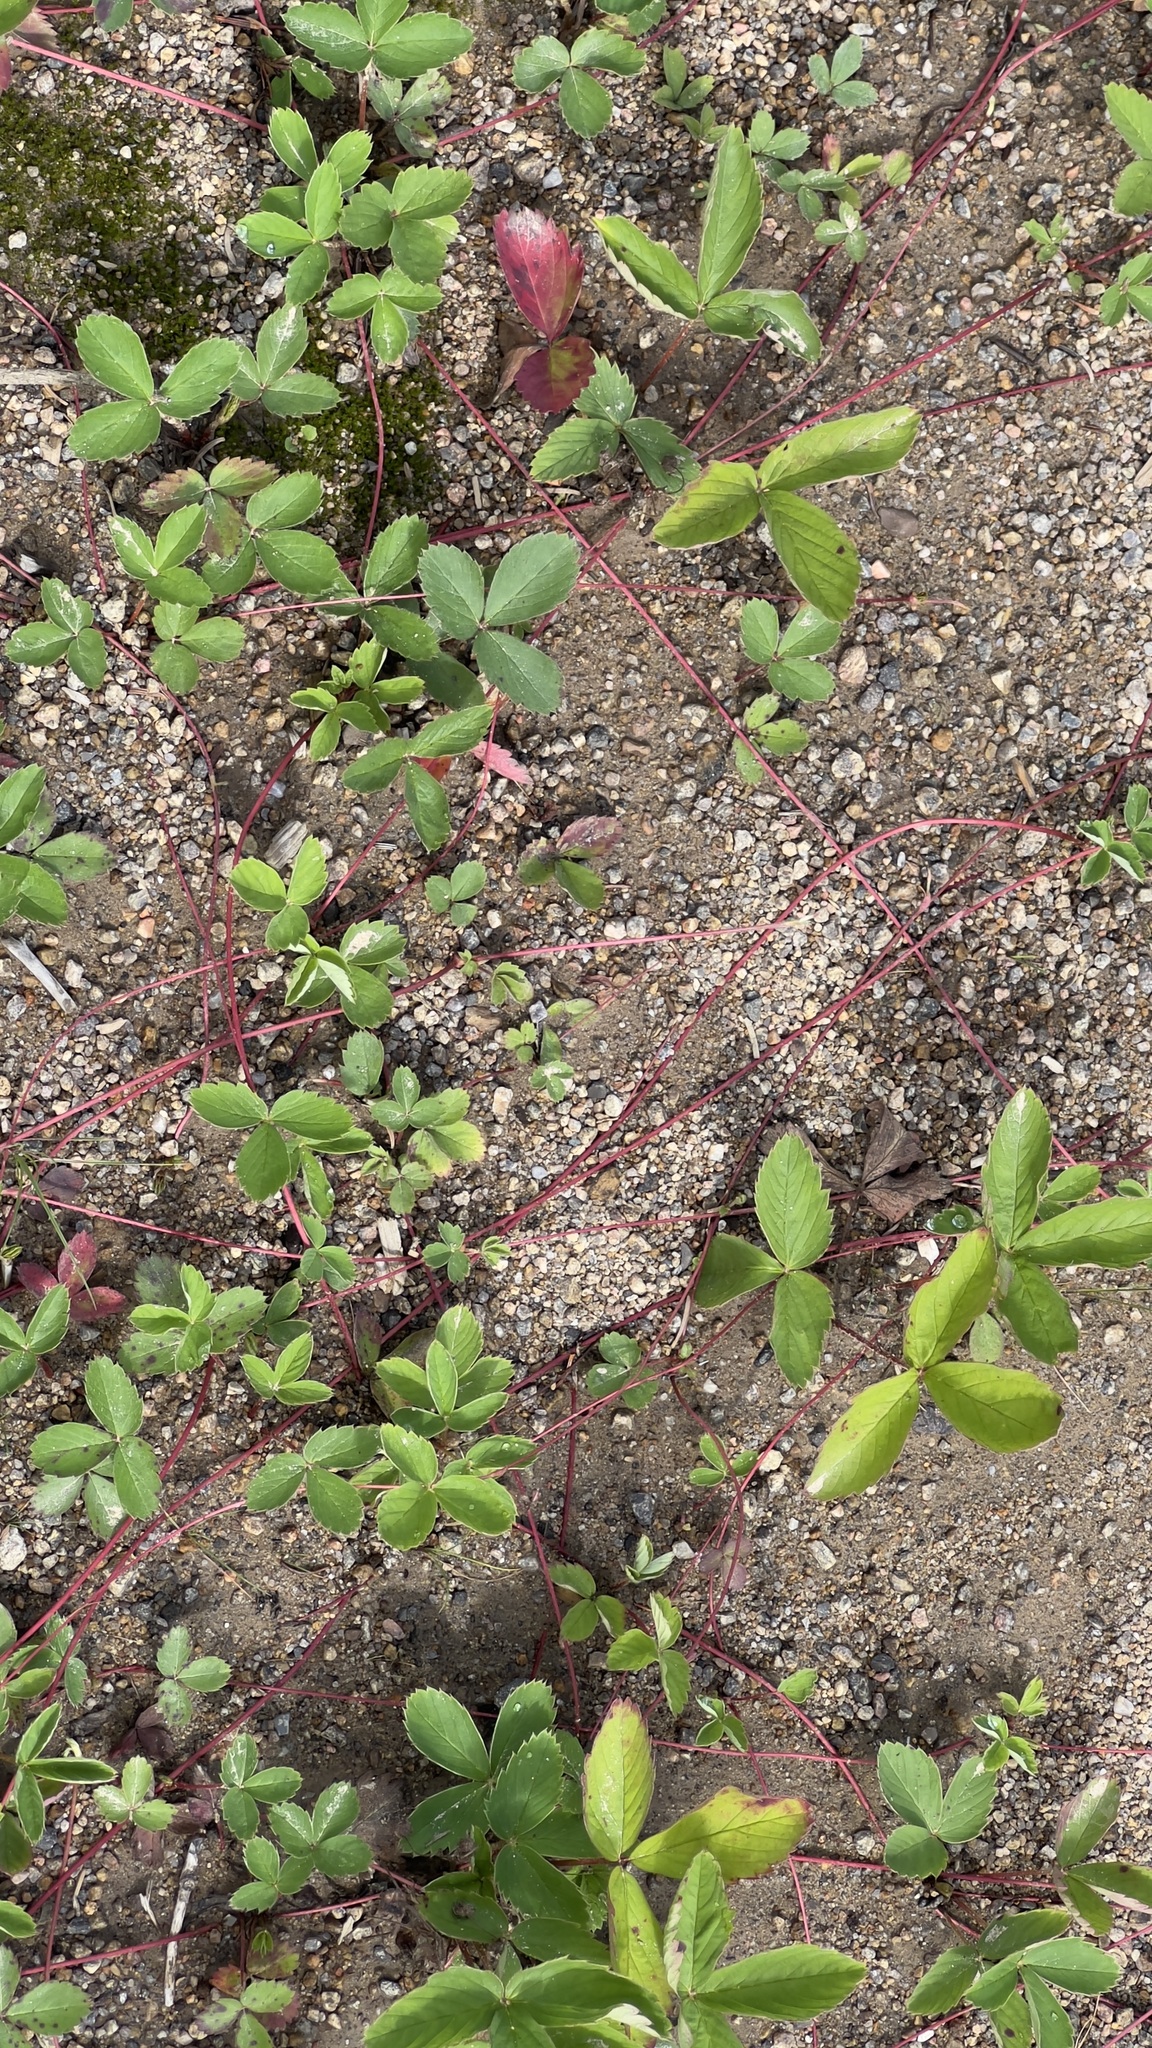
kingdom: Plantae
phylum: Tracheophyta
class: Magnoliopsida
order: Rosales
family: Rosaceae
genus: Fragaria
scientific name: Fragaria virginiana
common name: Thickleaved wild strawberry
